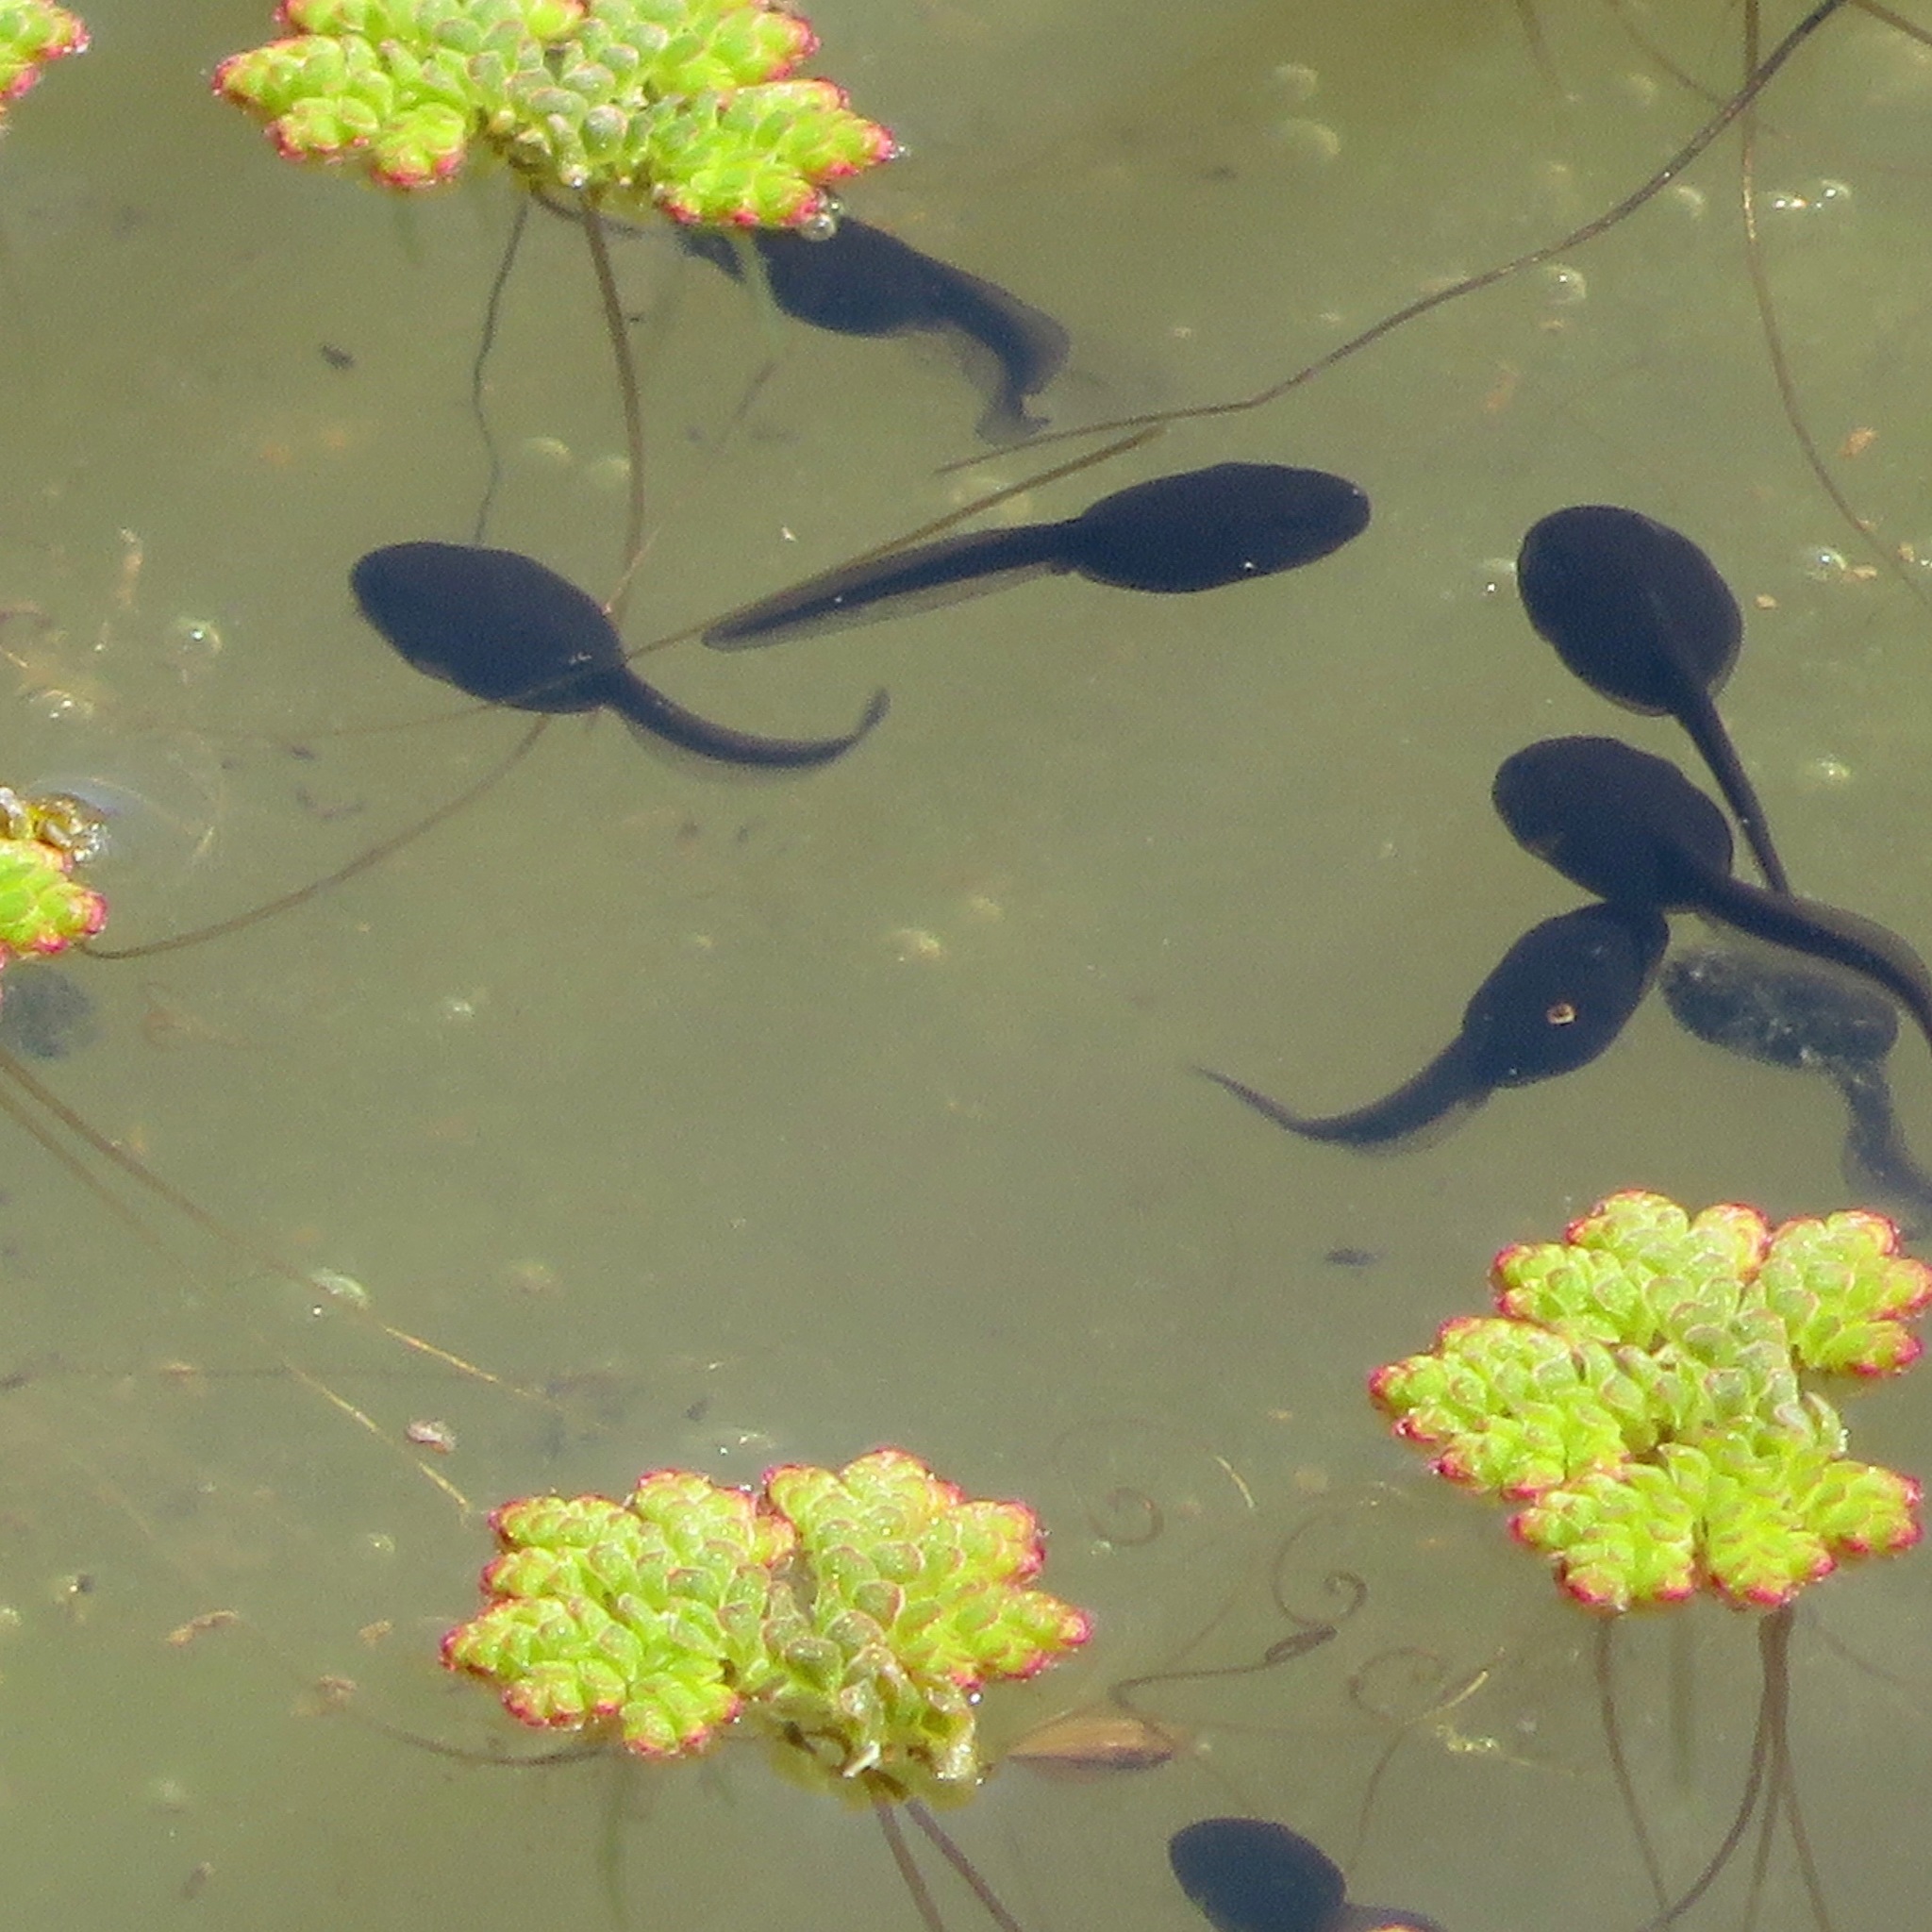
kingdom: Animalia
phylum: Chordata
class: Amphibia
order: Anura
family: Bufonidae
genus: Anaxyrus
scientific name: Anaxyrus boreas
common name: Western toad
